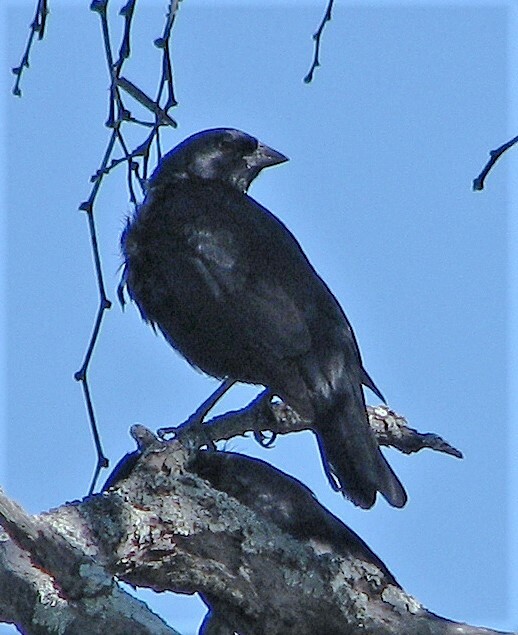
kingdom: Animalia
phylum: Chordata
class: Aves
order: Passeriformes
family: Icteridae
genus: Molothrus
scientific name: Molothrus rufoaxillaris
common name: Screaming cowbird
